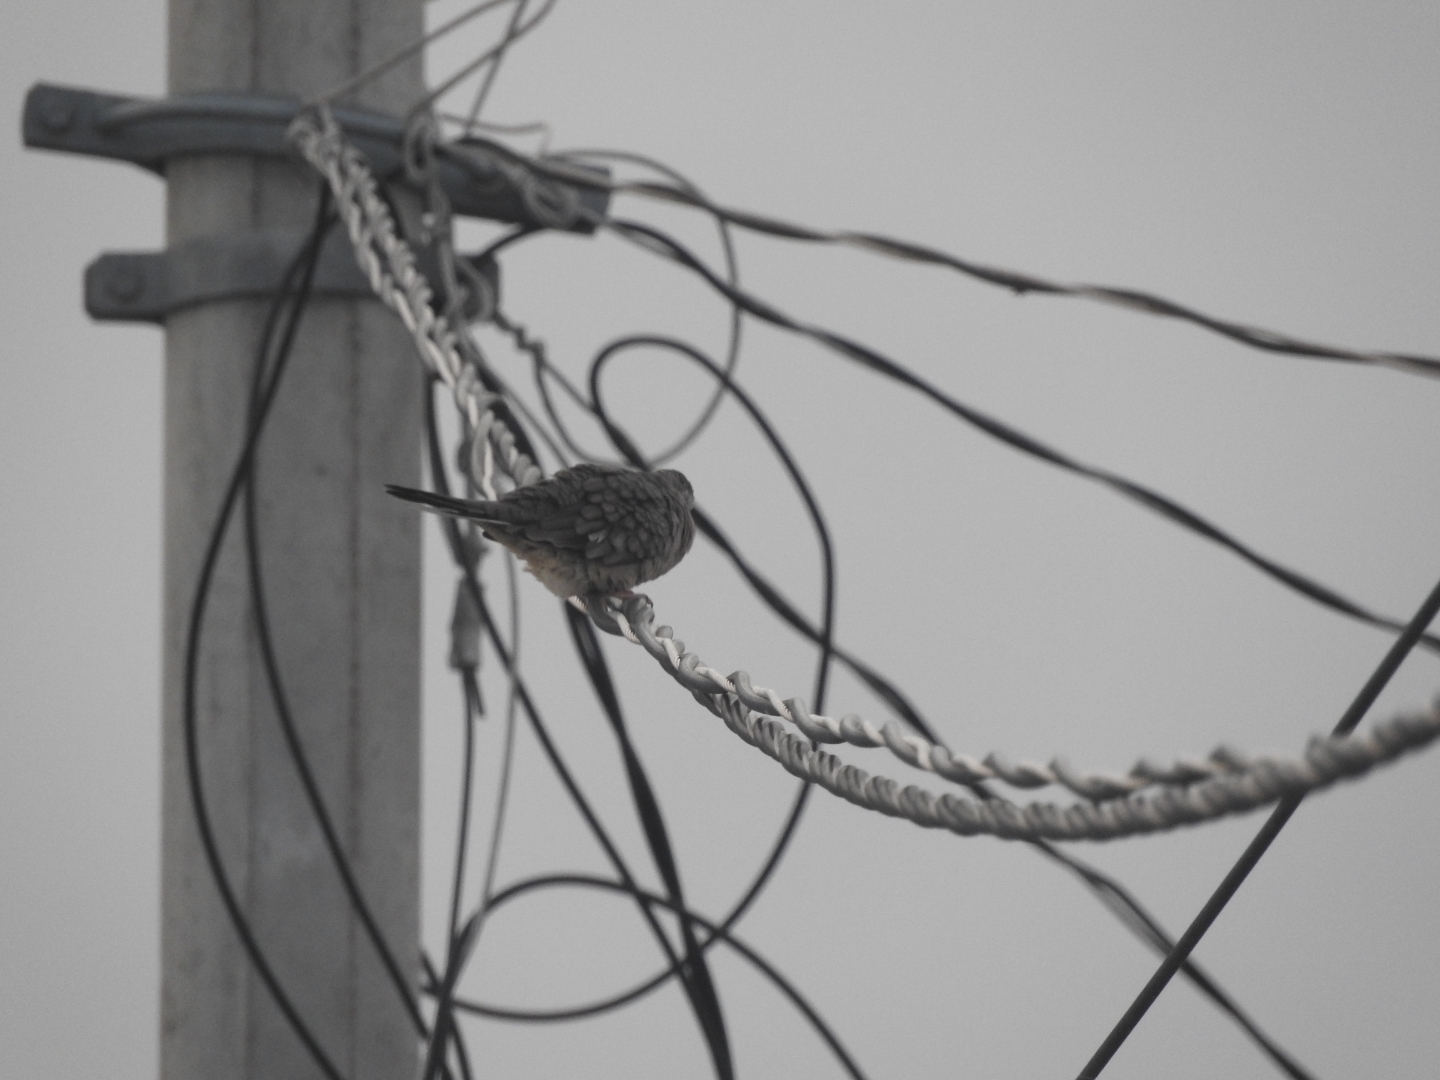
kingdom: Animalia
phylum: Chordata
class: Aves
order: Columbiformes
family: Columbidae
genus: Columbina
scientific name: Columbina inca
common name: Inca dove
